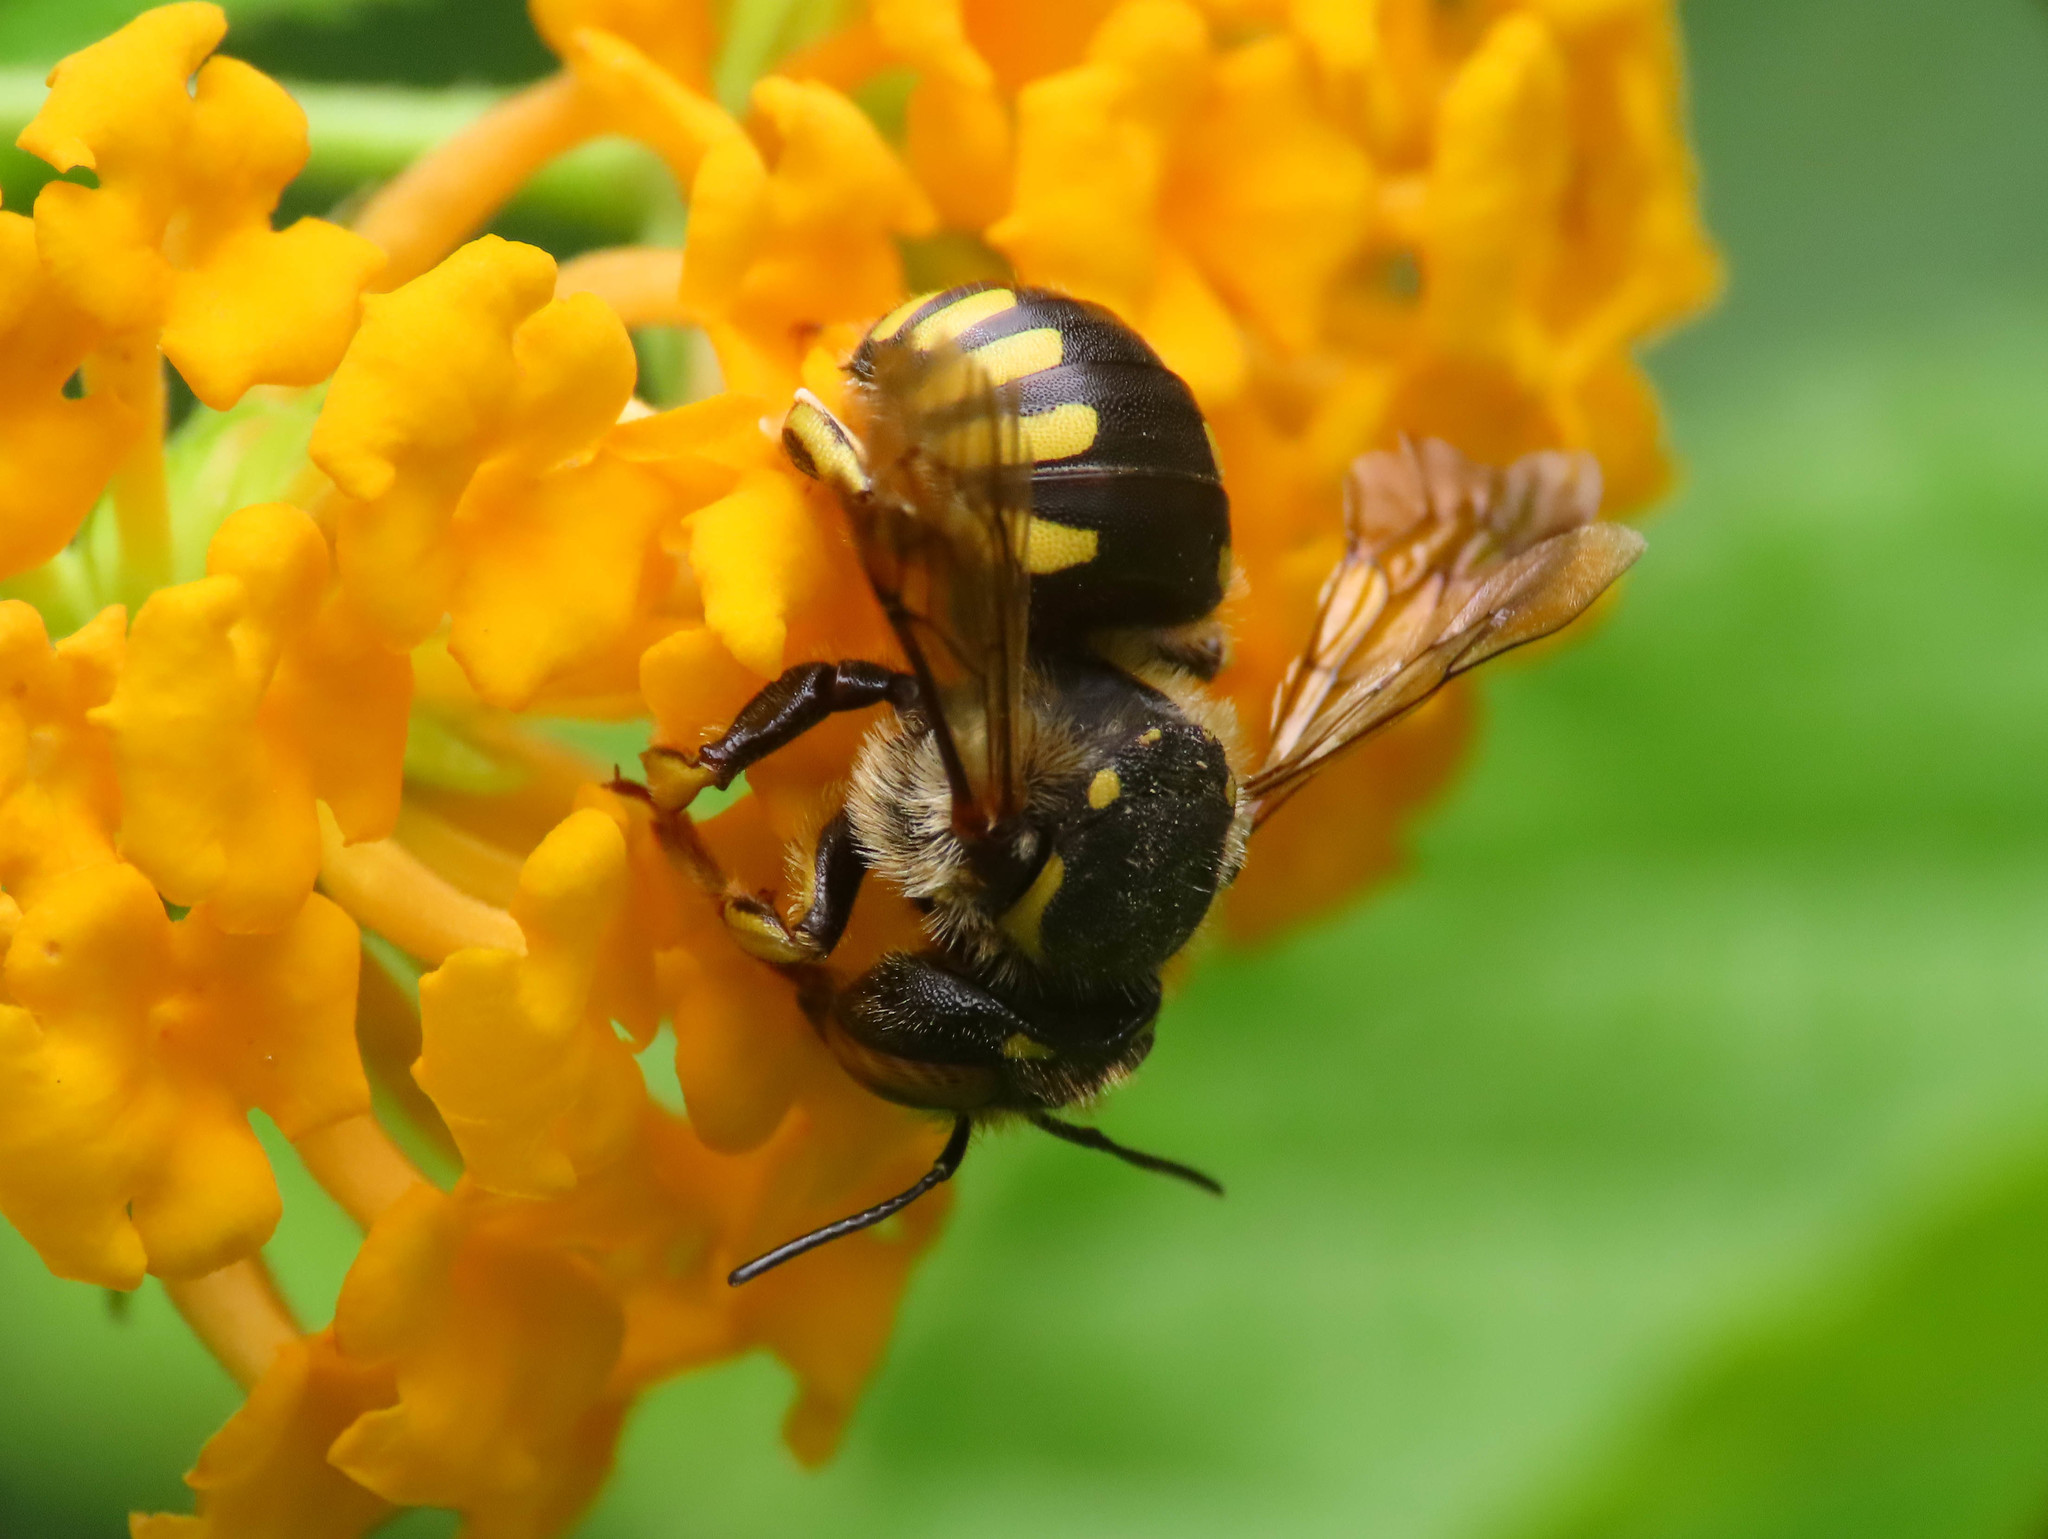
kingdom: Animalia
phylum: Arthropoda
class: Insecta
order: Hymenoptera
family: Megachilidae
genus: Anthidium
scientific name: Anthidium florentinum
